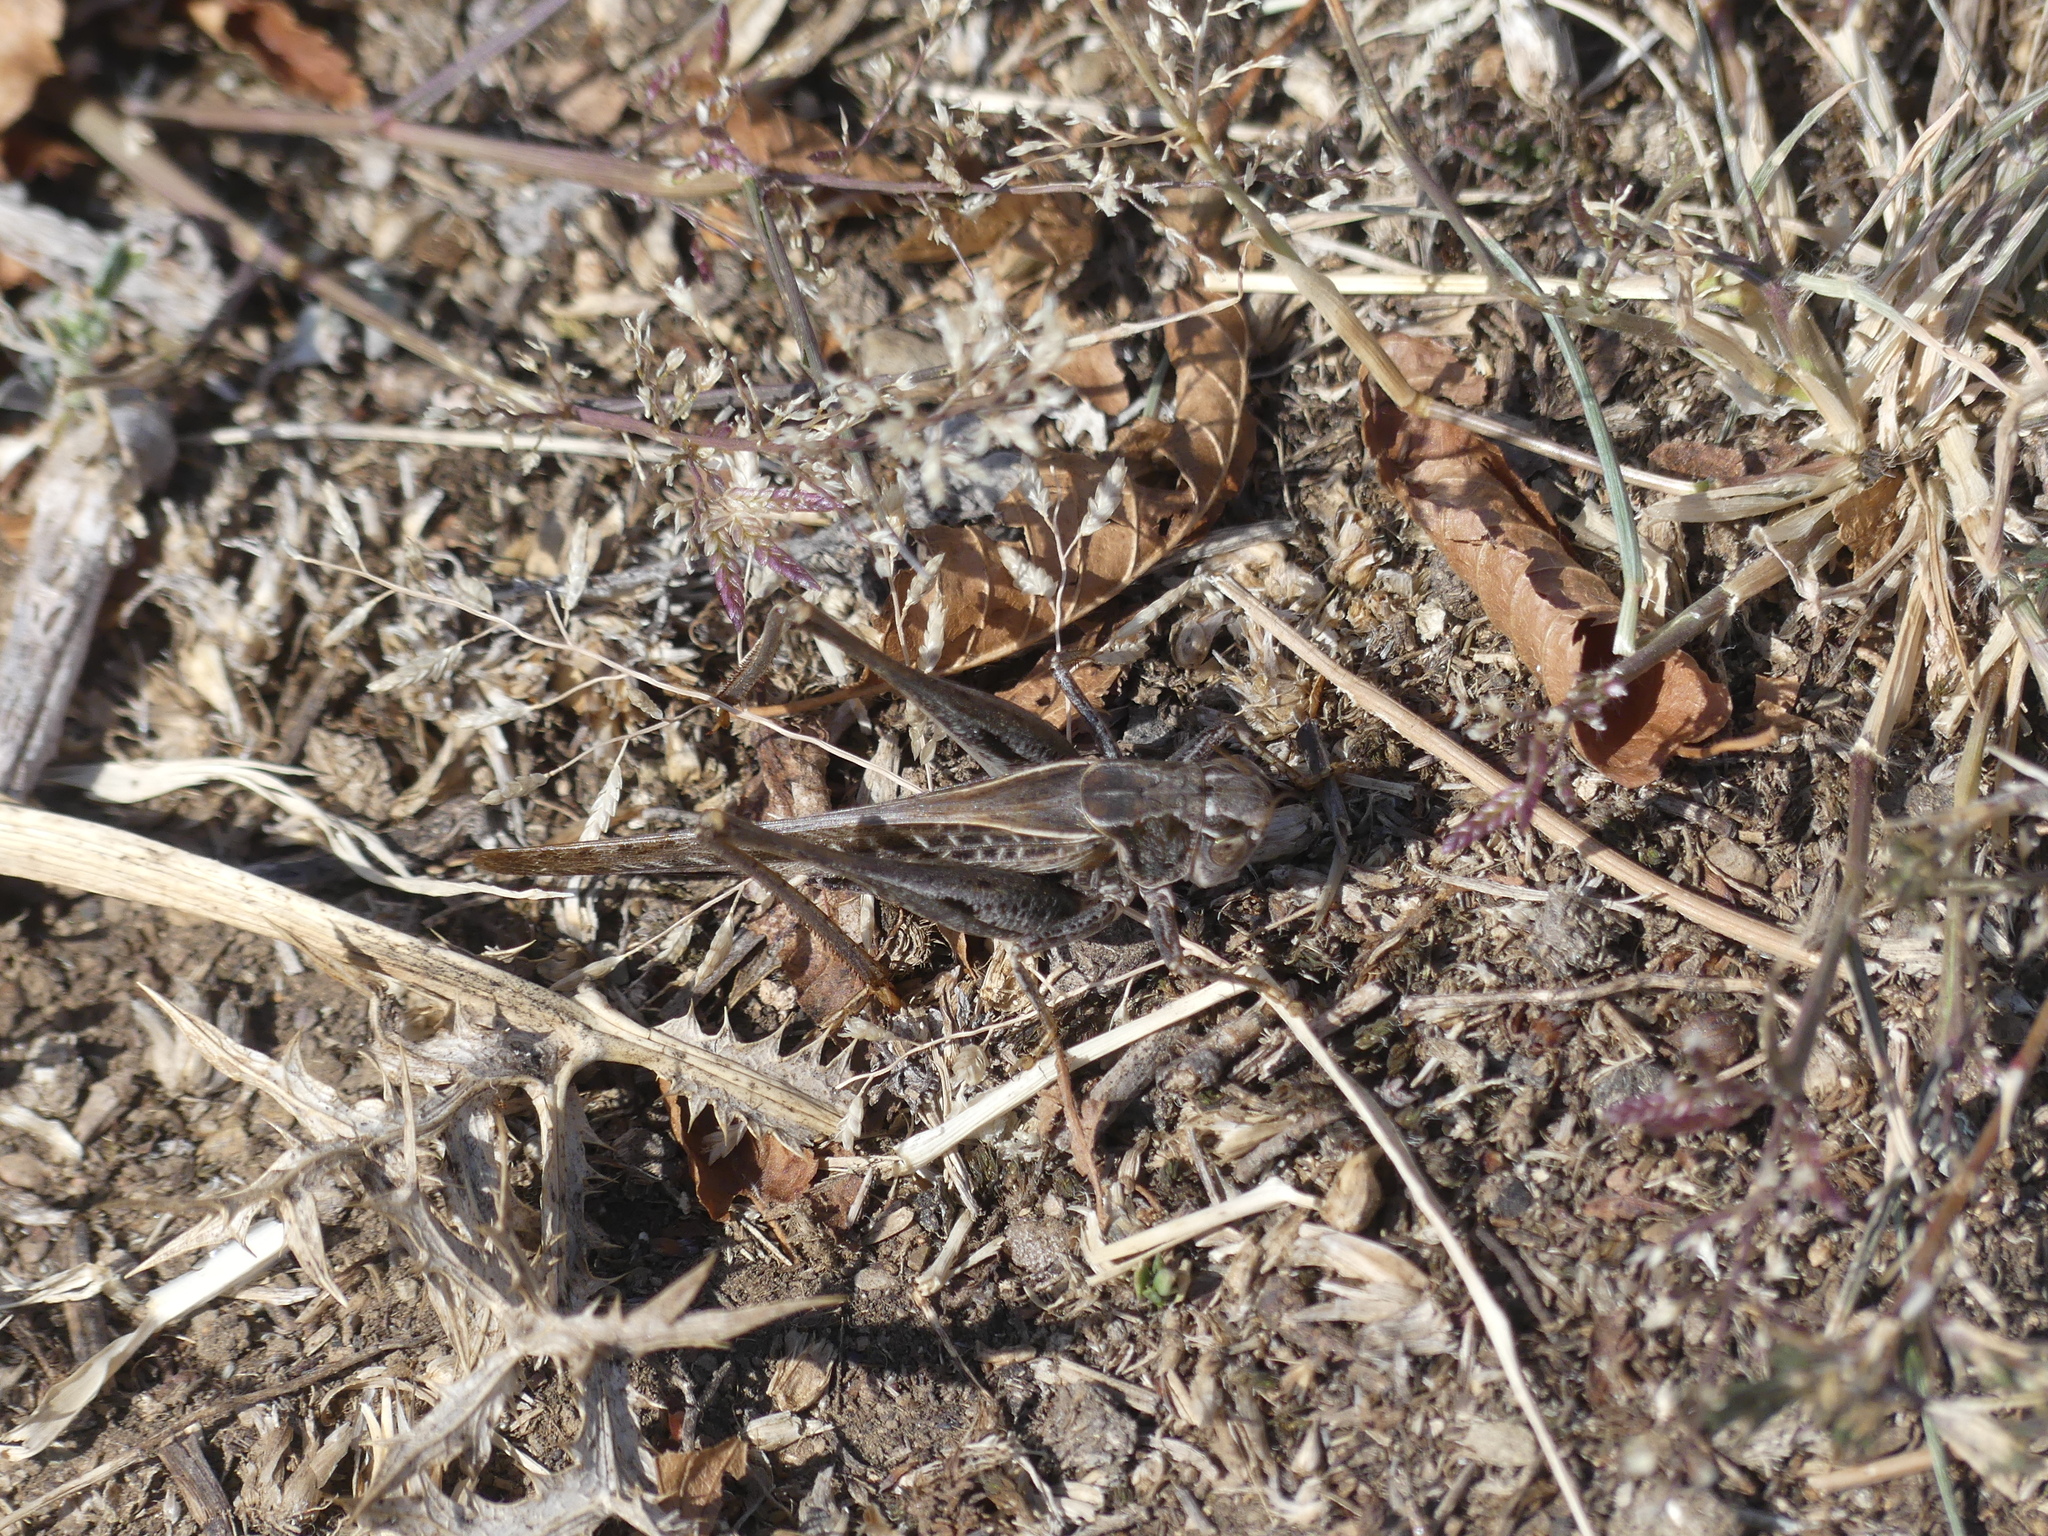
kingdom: Animalia
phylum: Arthropoda
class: Insecta
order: Orthoptera
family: Tettigoniidae
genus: Platycleis
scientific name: Platycleis affinis
